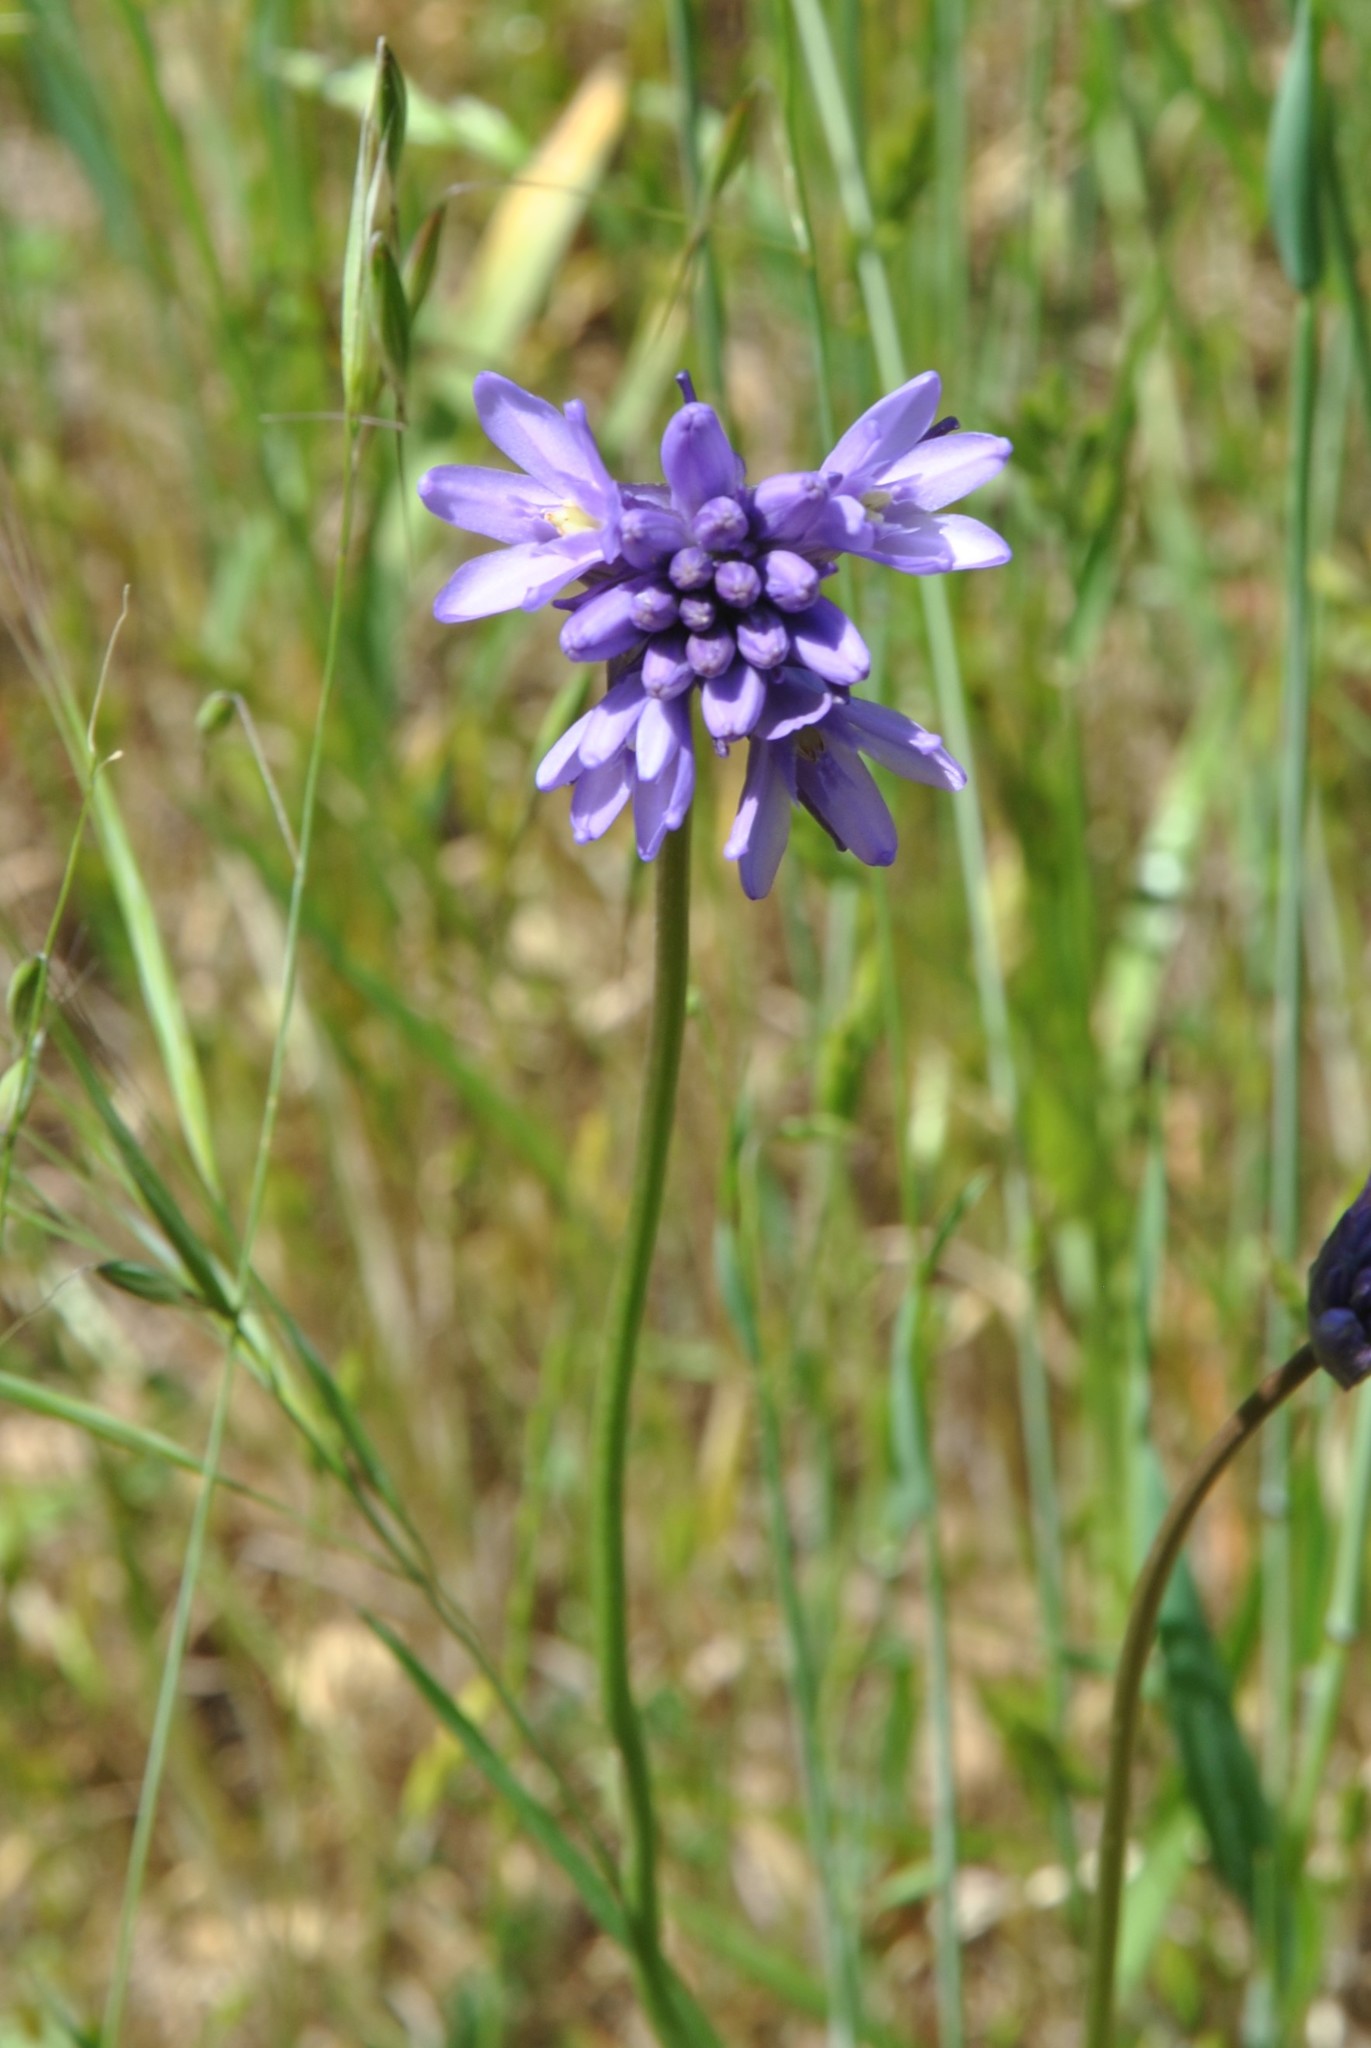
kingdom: Plantae
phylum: Tracheophyta
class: Liliopsida
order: Asparagales
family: Asparagaceae
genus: Dichelostemma
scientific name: Dichelostemma congestum
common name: Fork-tooth ookow
